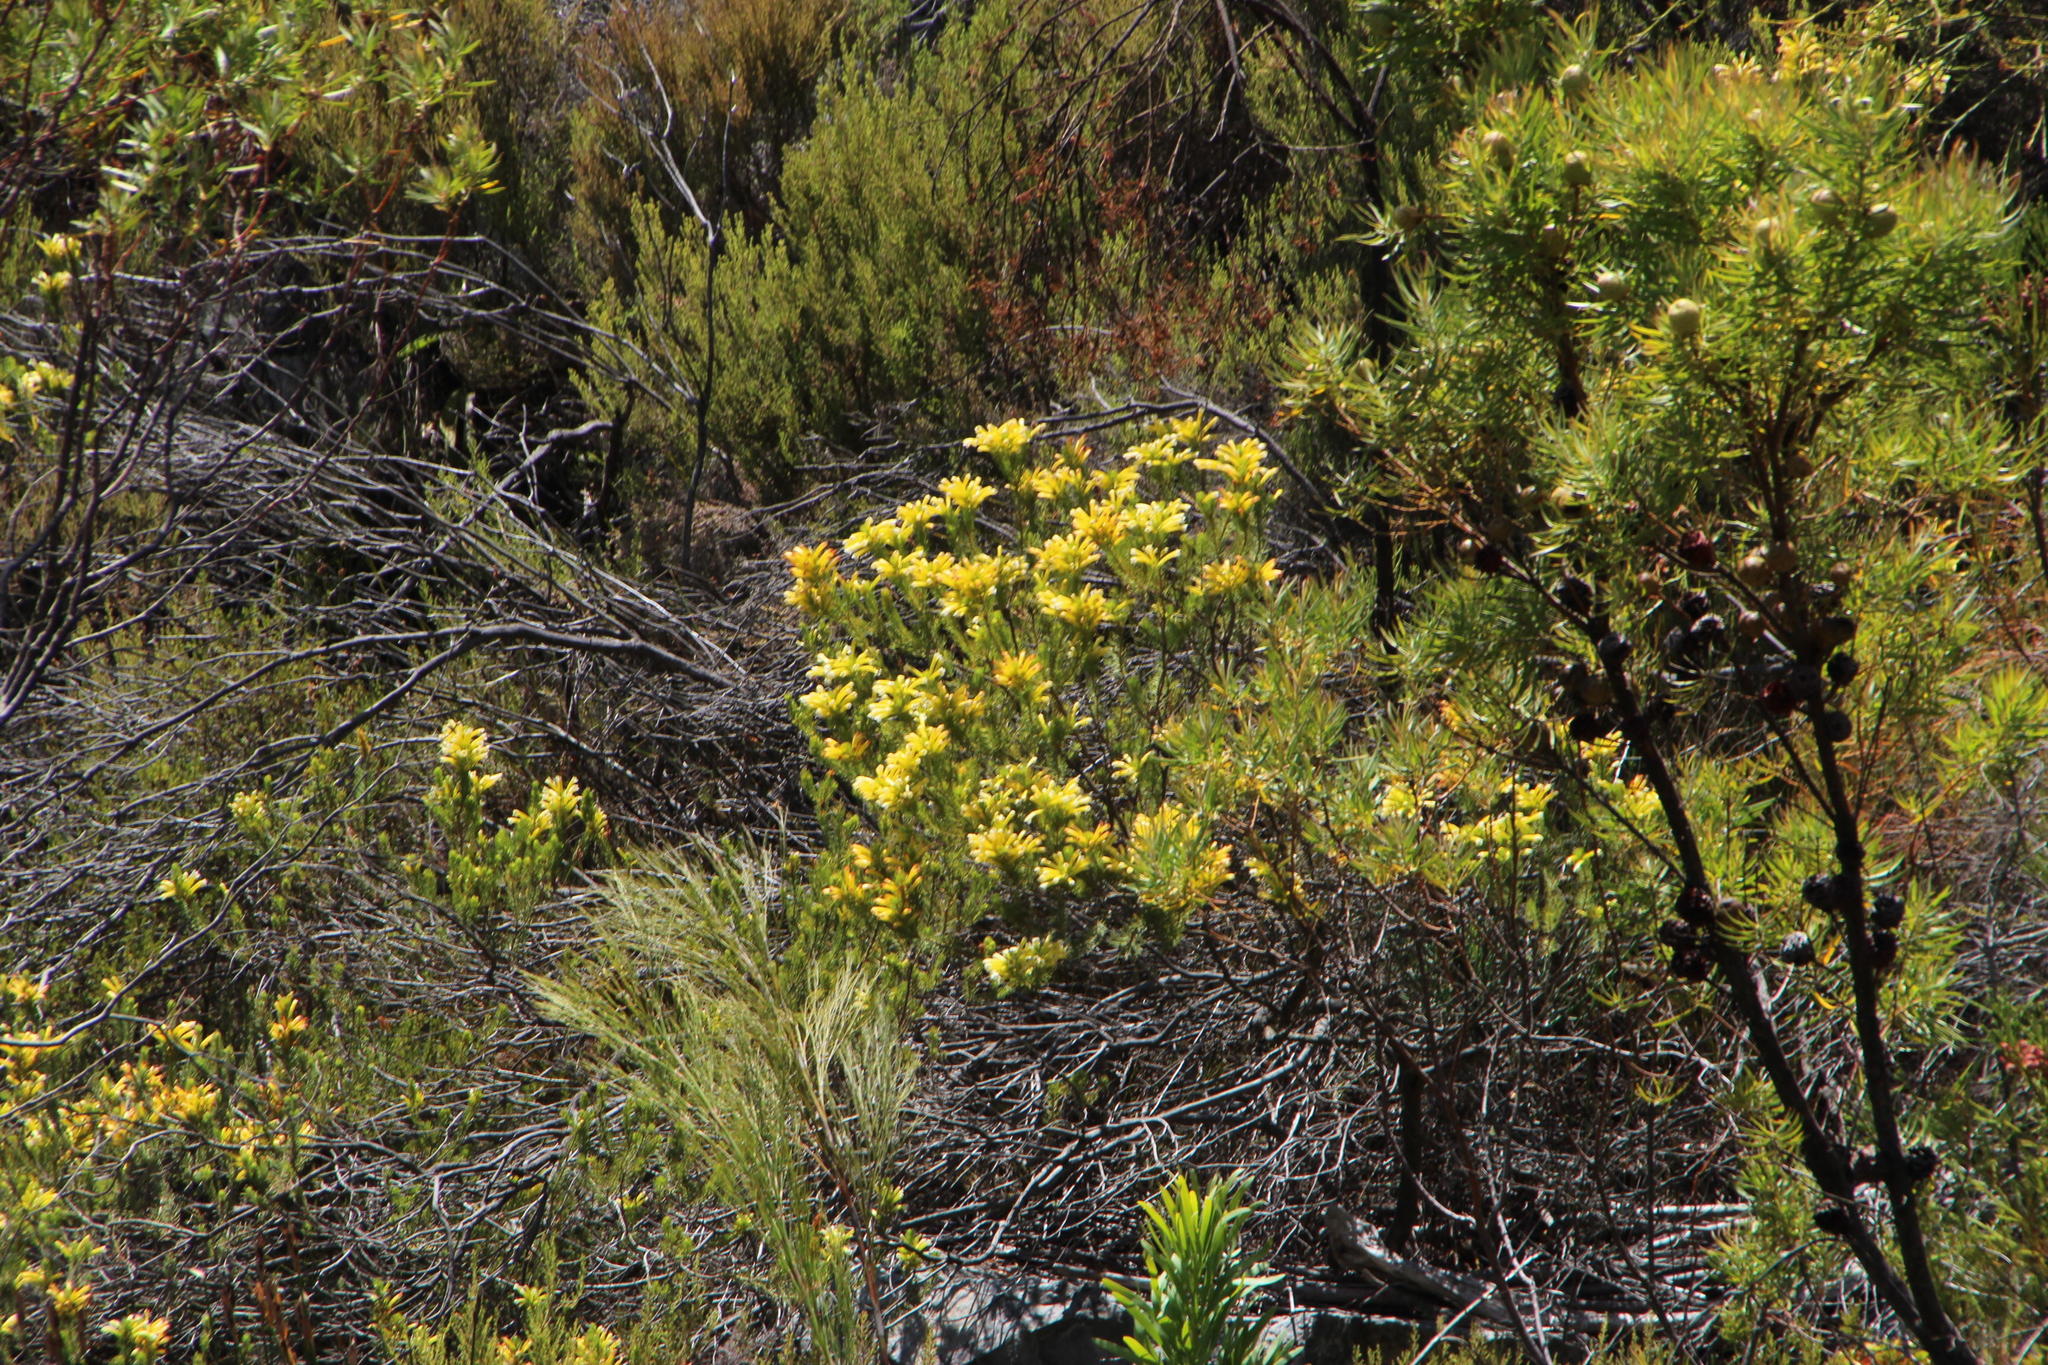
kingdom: Plantae
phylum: Tracheophyta
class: Magnoliopsida
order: Ericales
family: Ericaceae
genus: Erica
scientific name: Erica pinea
